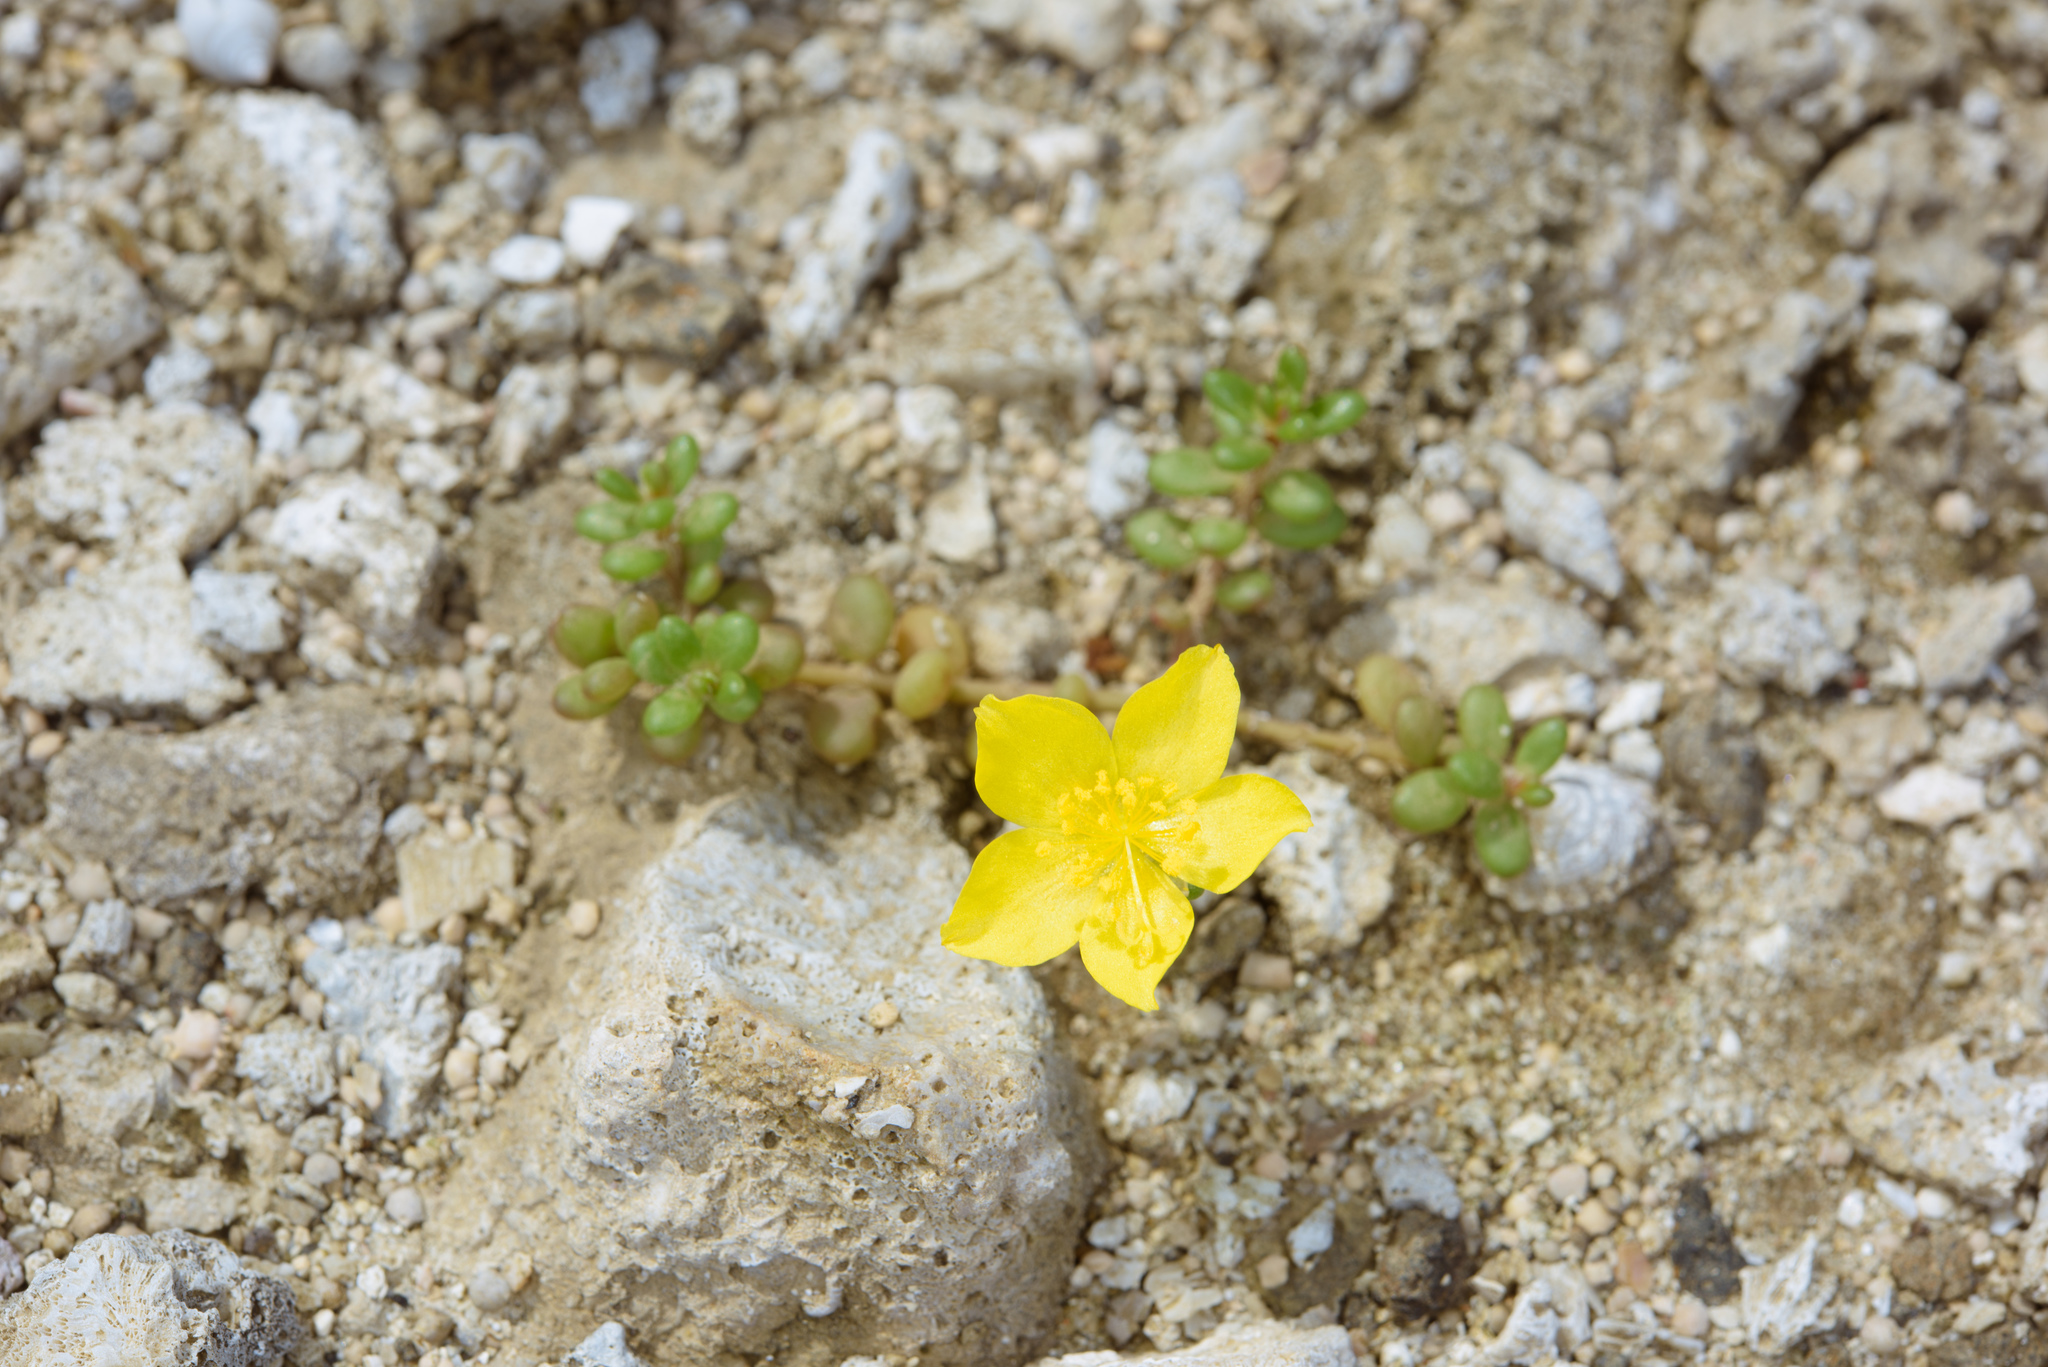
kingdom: Plantae
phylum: Tracheophyta
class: Magnoliopsida
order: Caryophyllales
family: Portulacaceae
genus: Portulaca
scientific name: Portulaca psammotropha
